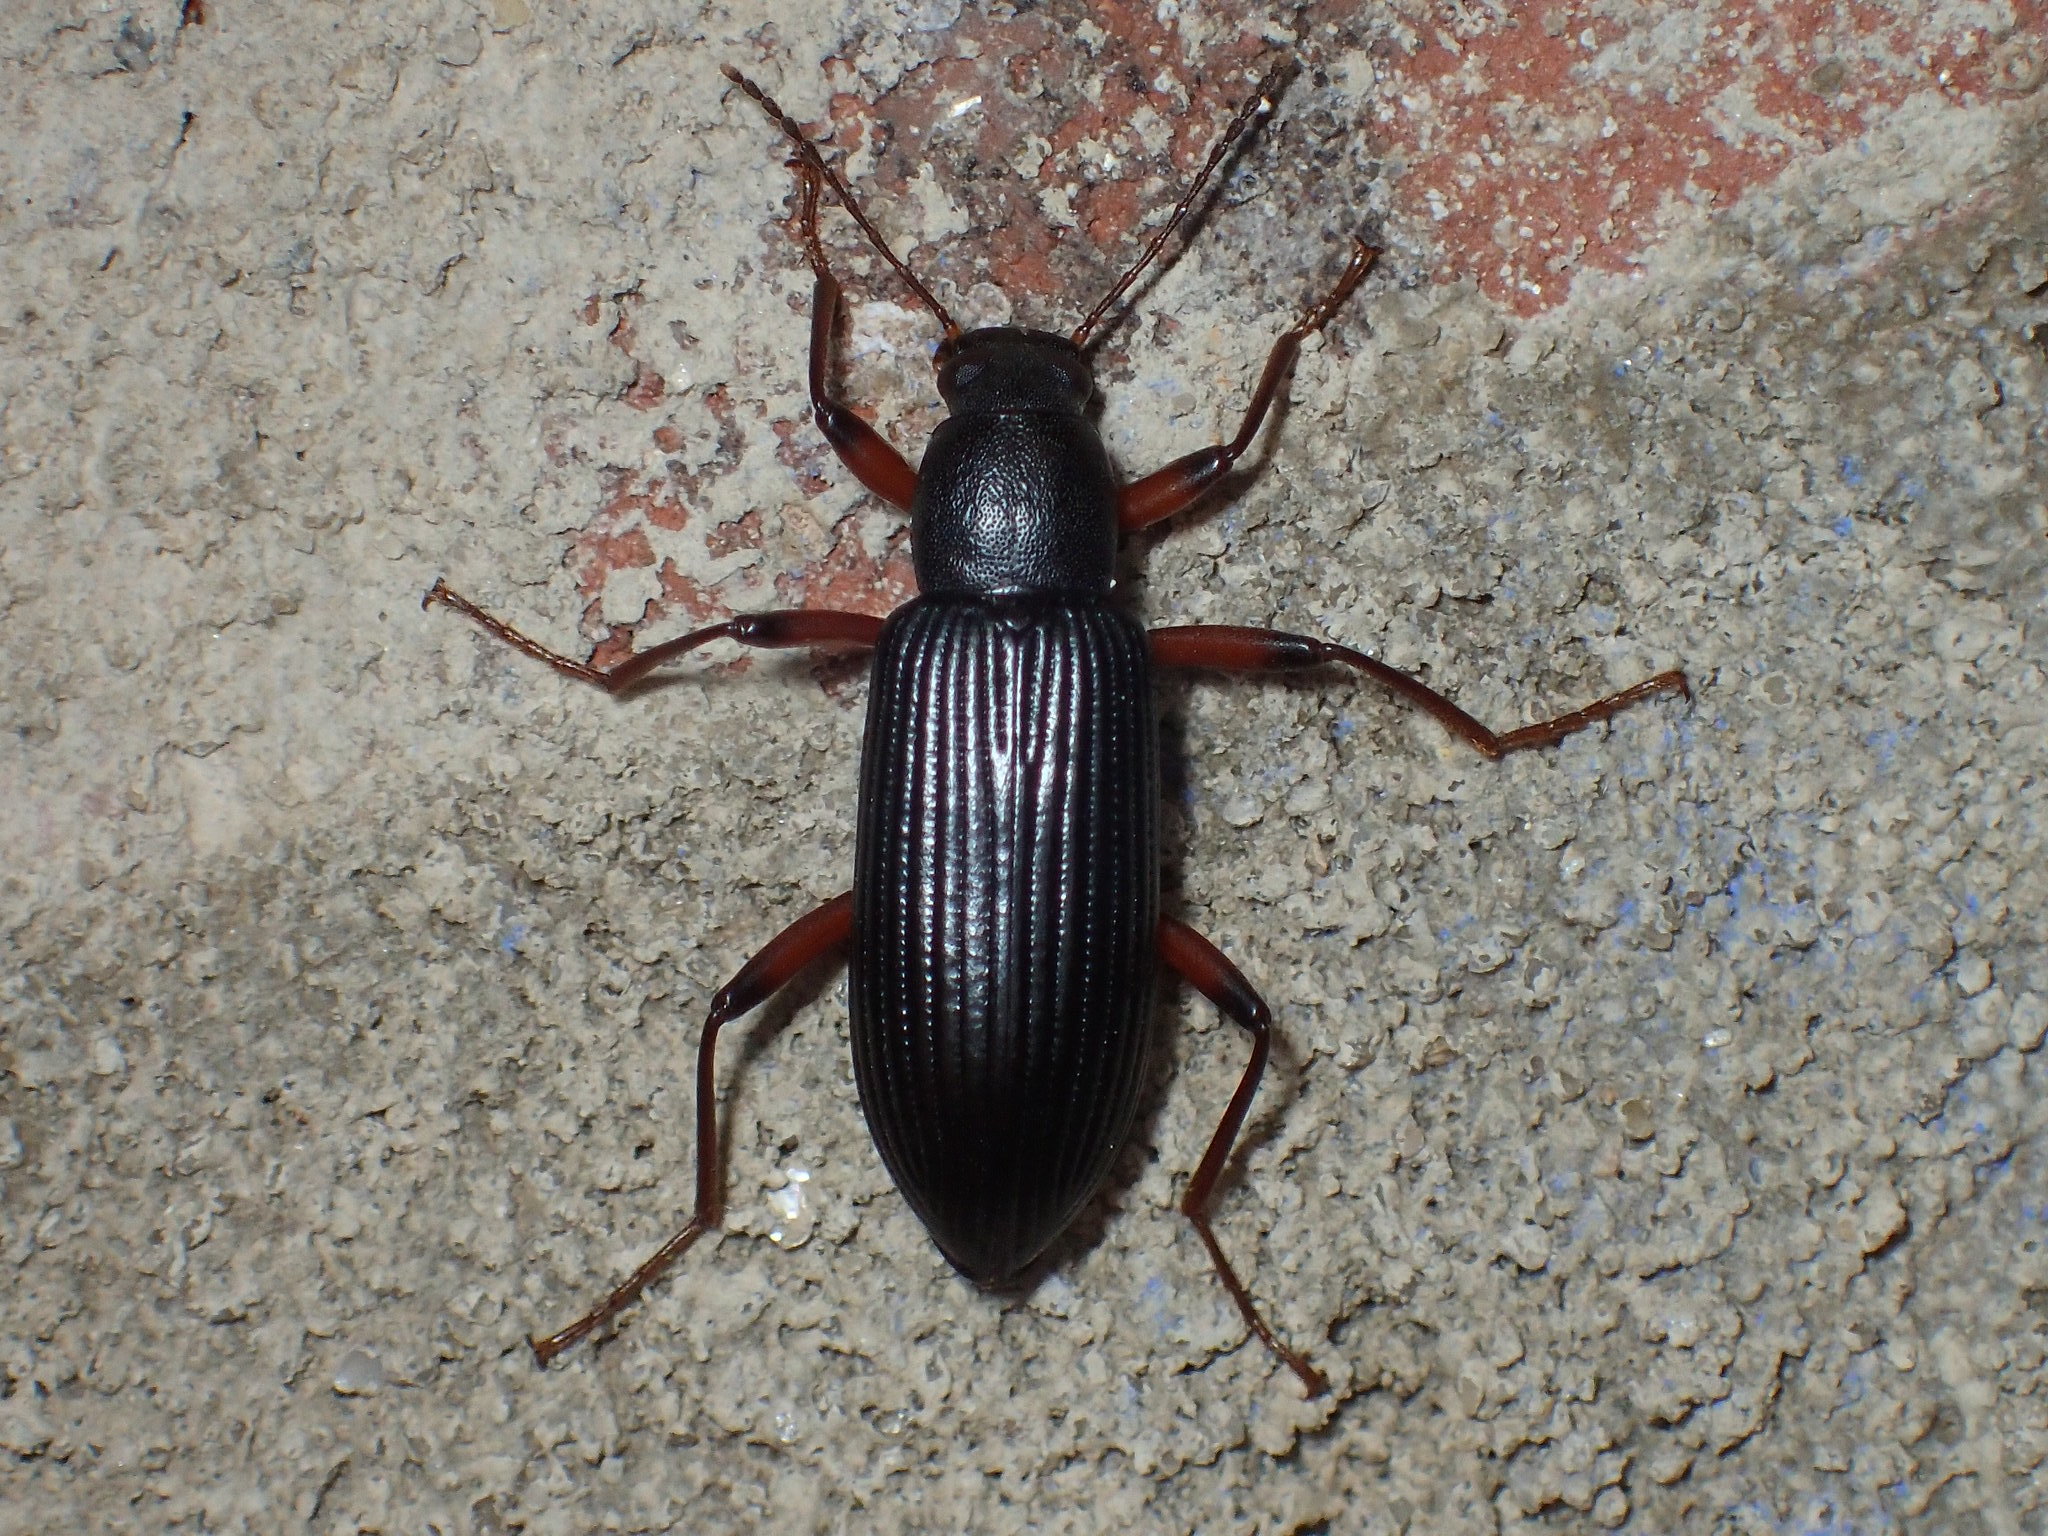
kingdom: Animalia
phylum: Arthropoda
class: Insecta
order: Coleoptera
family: Tenebrionidae
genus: Strongylium
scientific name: Strongylium tenuicolle
